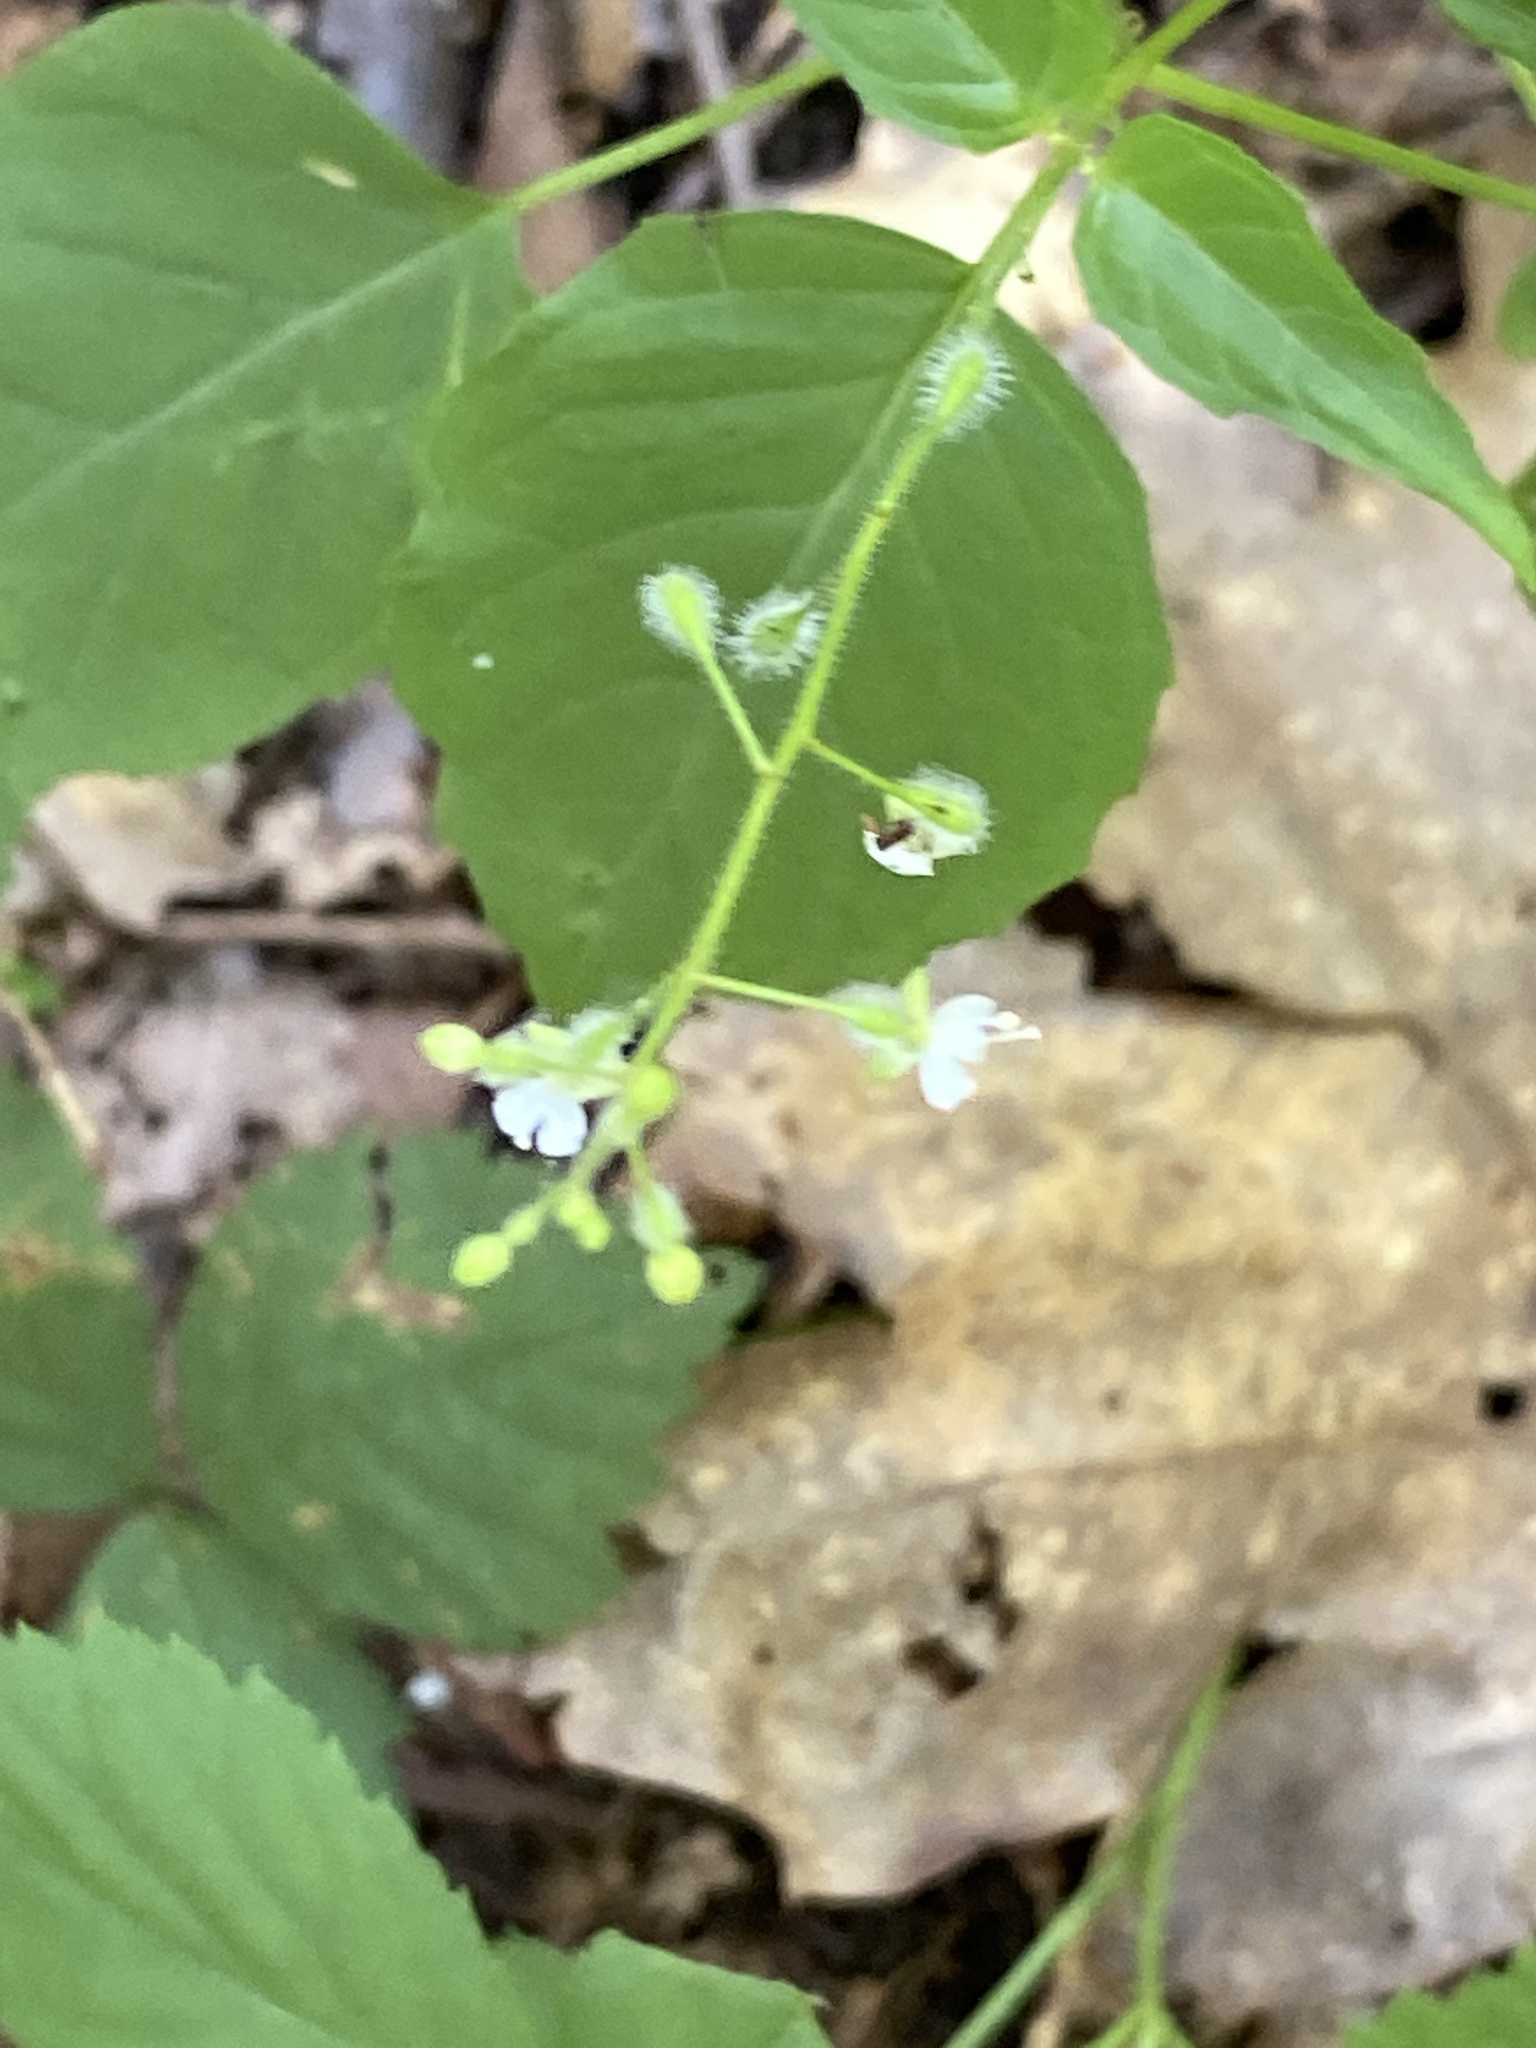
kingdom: Plantae
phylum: Tracheophyta
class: Magnoliopsida
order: Myrtales
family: Onagraceae
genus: Circaea
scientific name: Circaea canadensis
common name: Broad-leaved enchanter's nightshade
